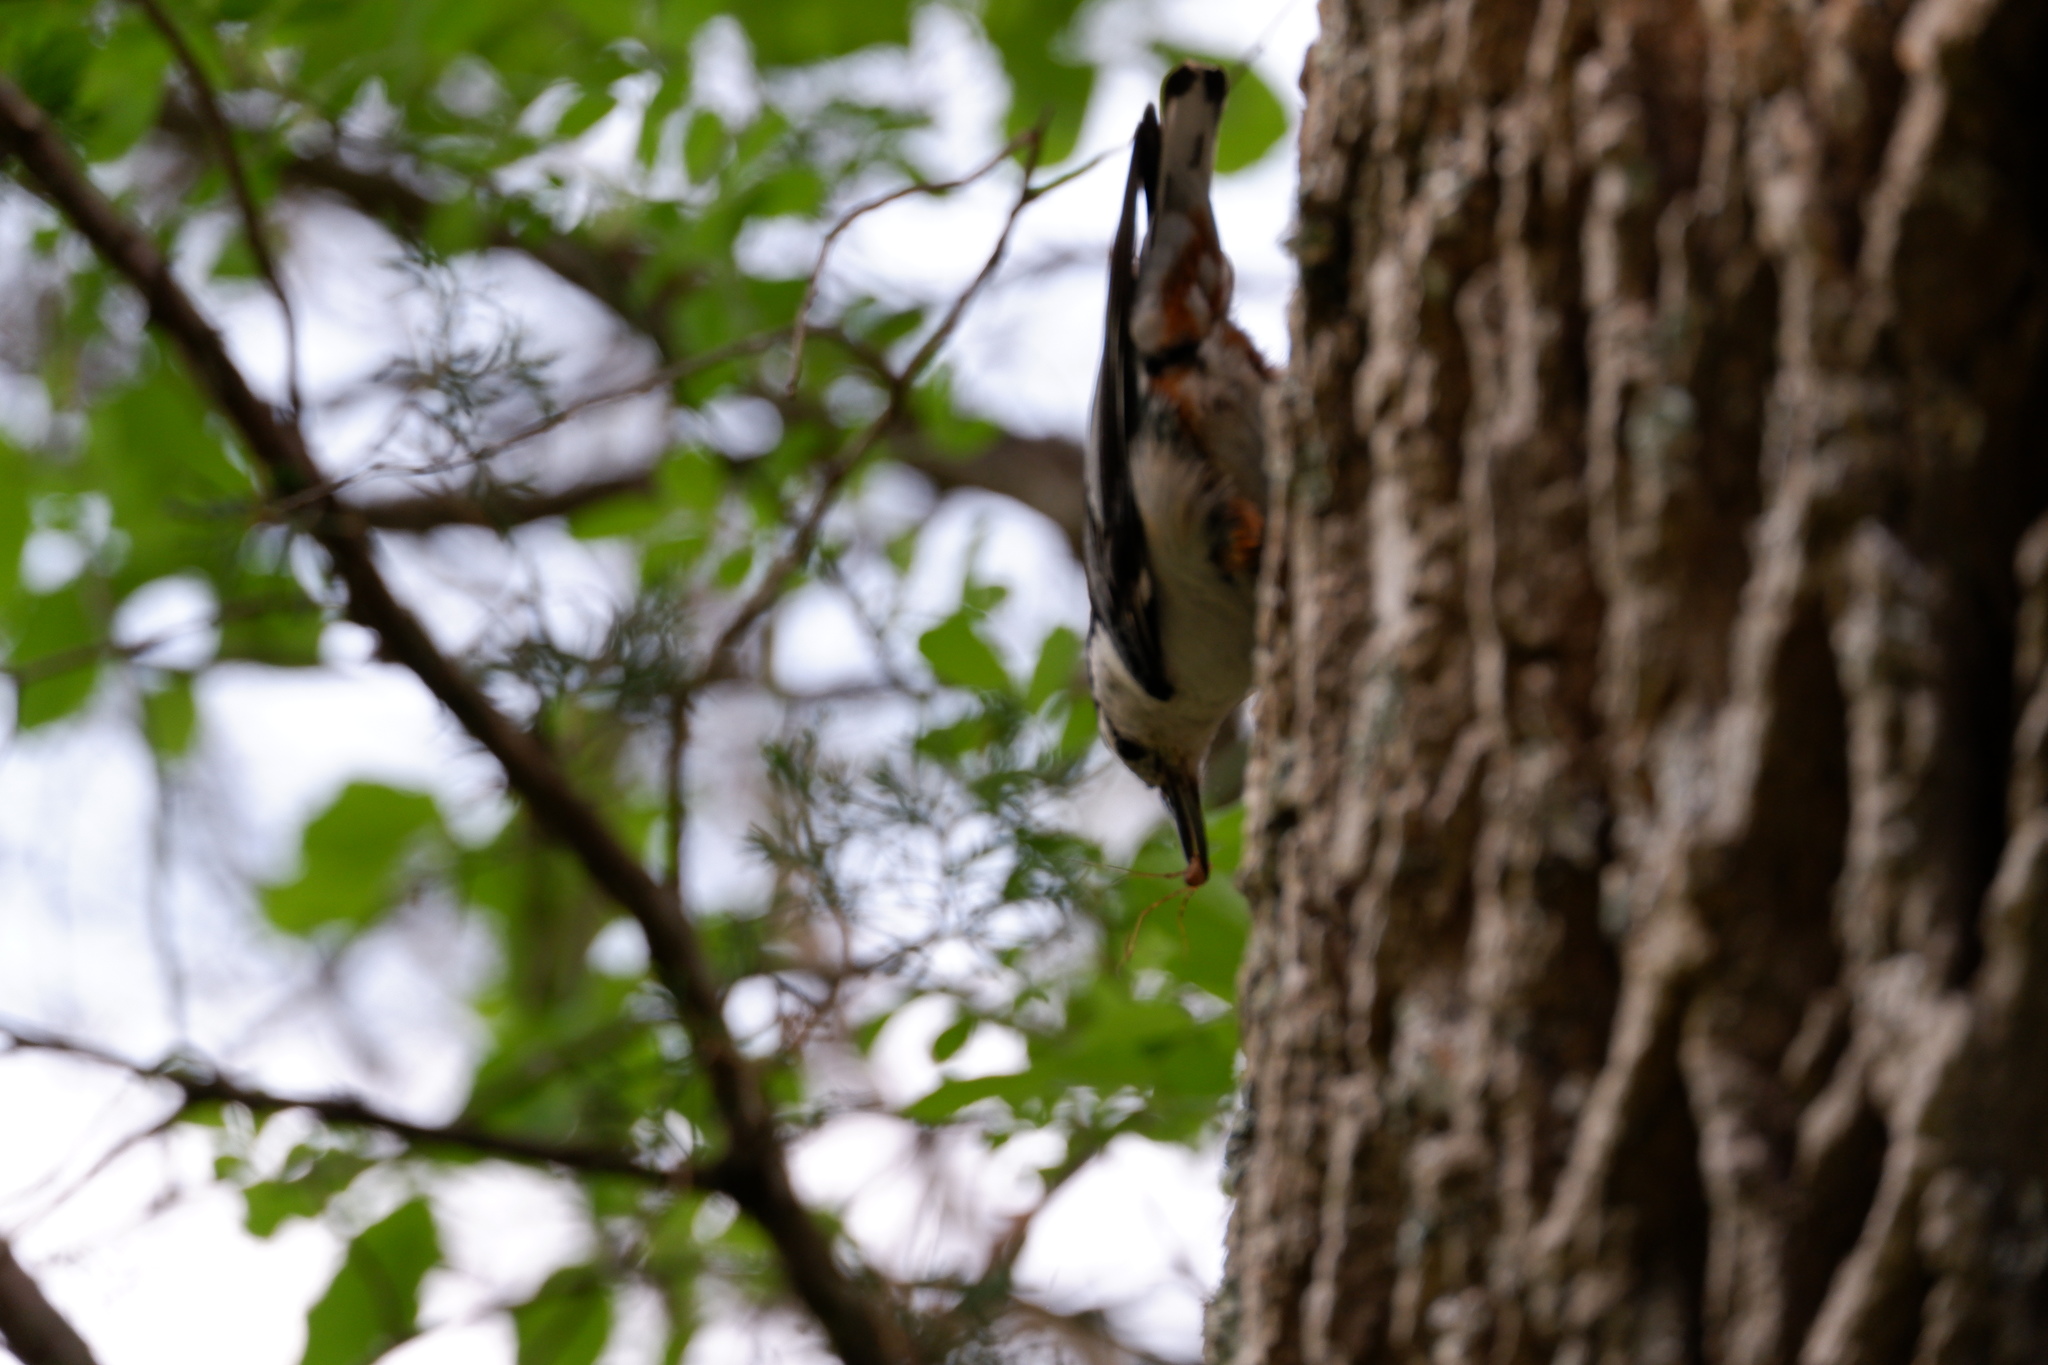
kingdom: Animalia
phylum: Chordata
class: Aves
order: Passeriformes
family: Sittidae
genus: Sitta
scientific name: Sitta carolinensis
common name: White-breasted nuthatch
